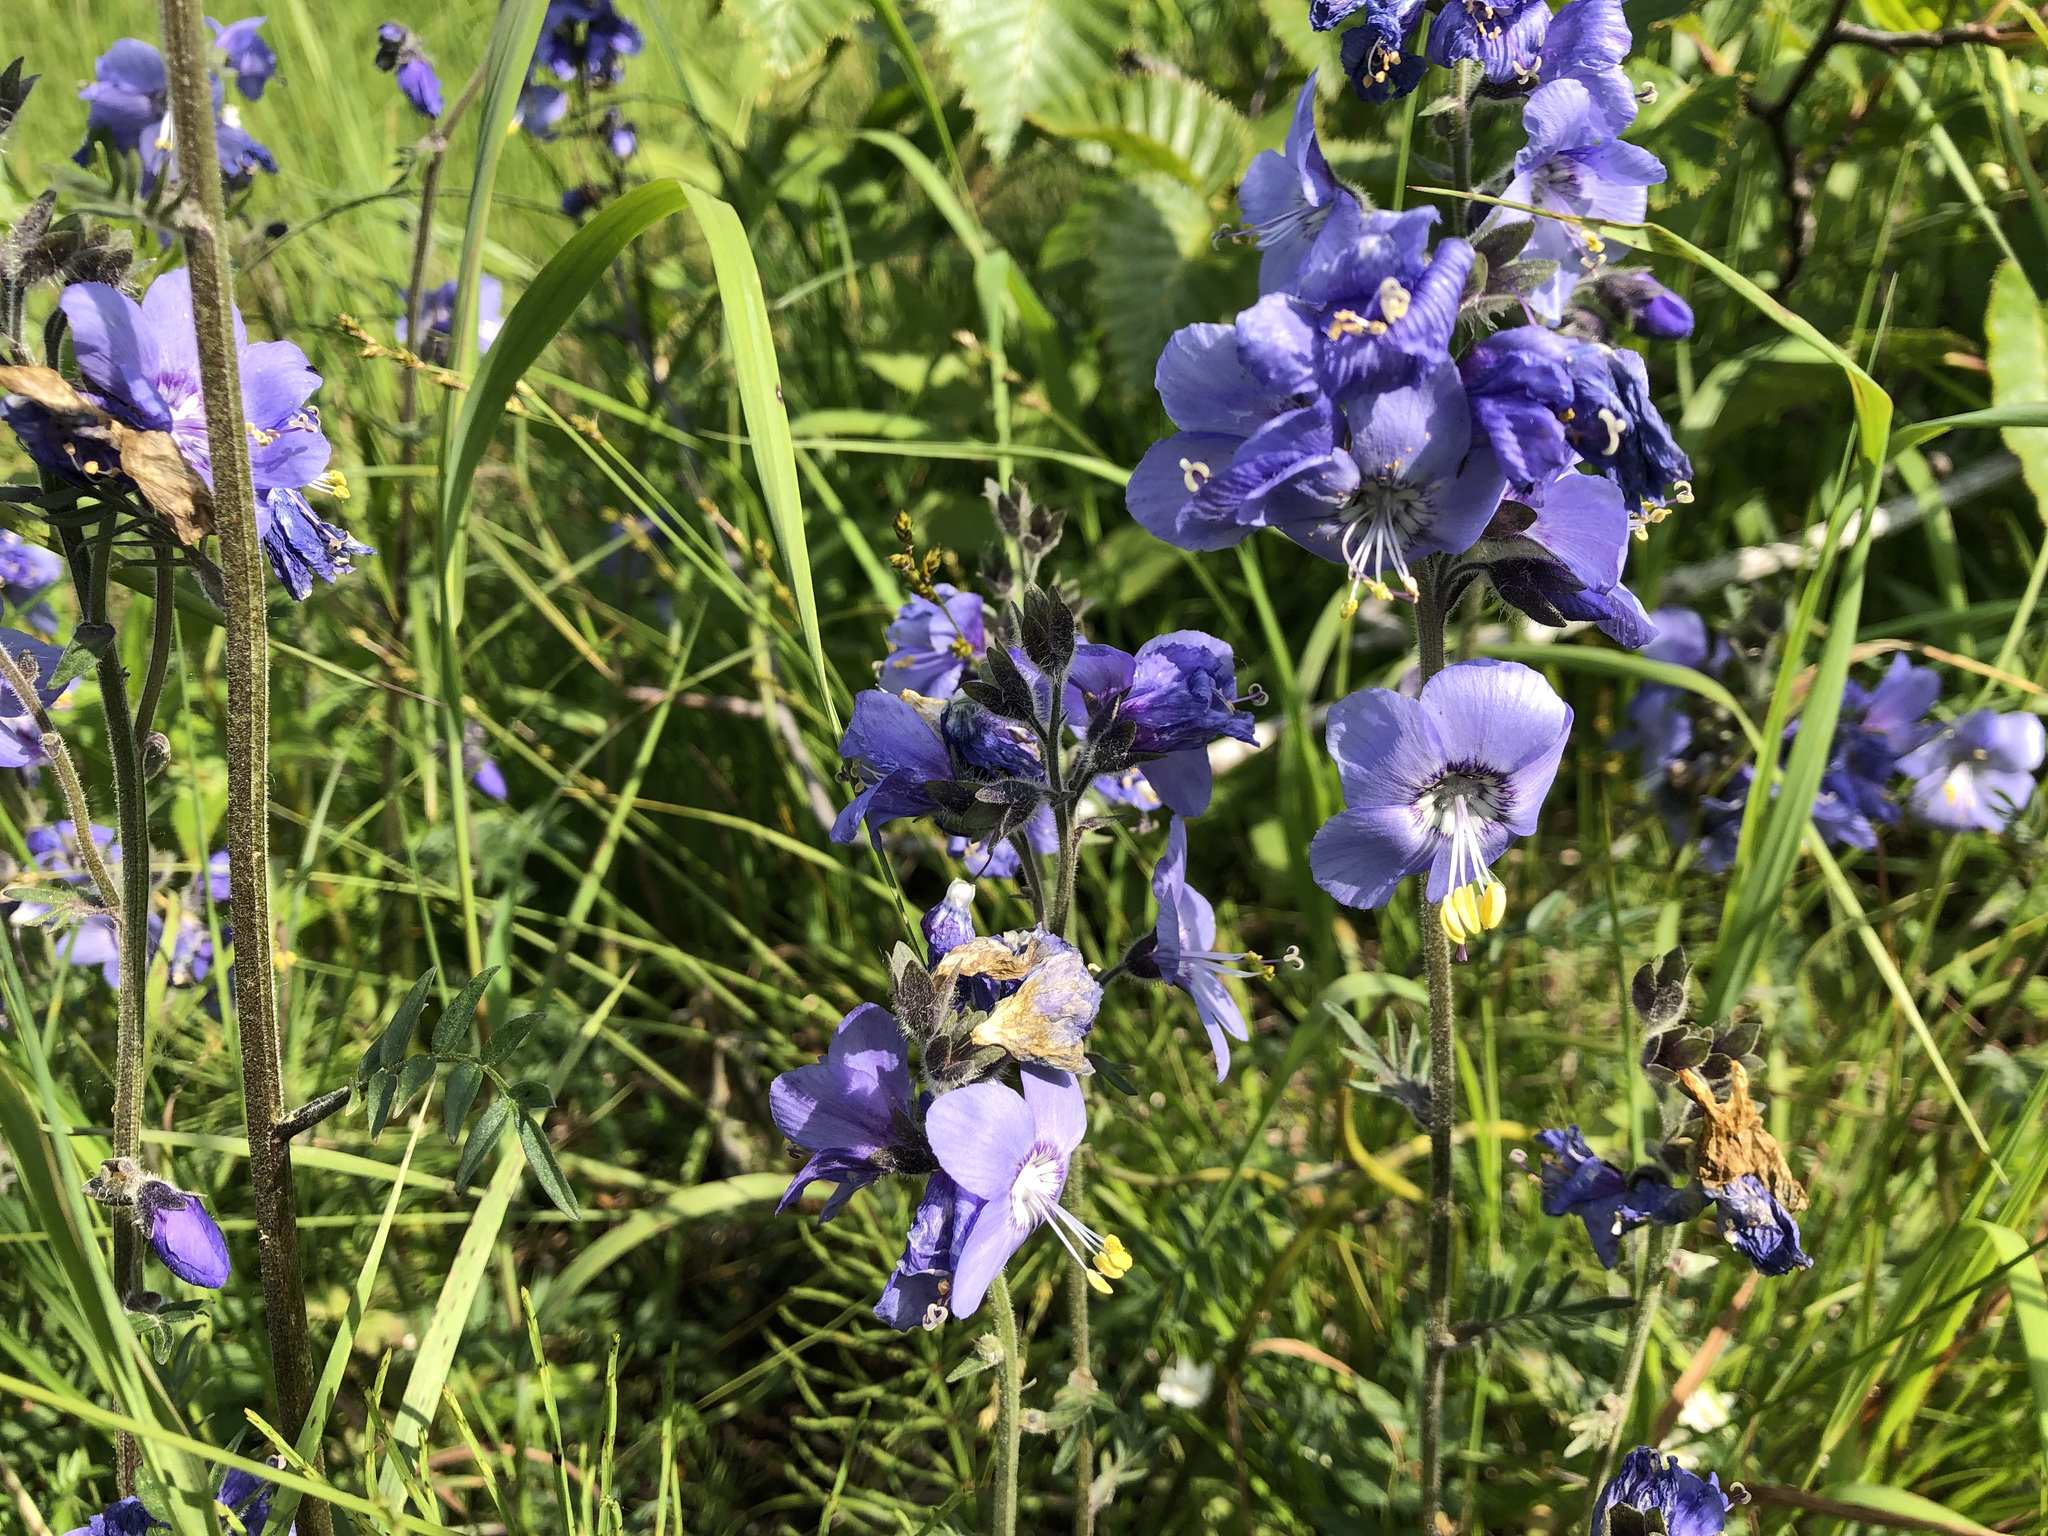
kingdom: Plantae
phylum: Tracheophyta
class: Magnoliopsida
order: Ericales
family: Polemoniaceae
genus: Polemonium
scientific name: Polemonium acutiflorum
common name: Tall jacob's-ladder
